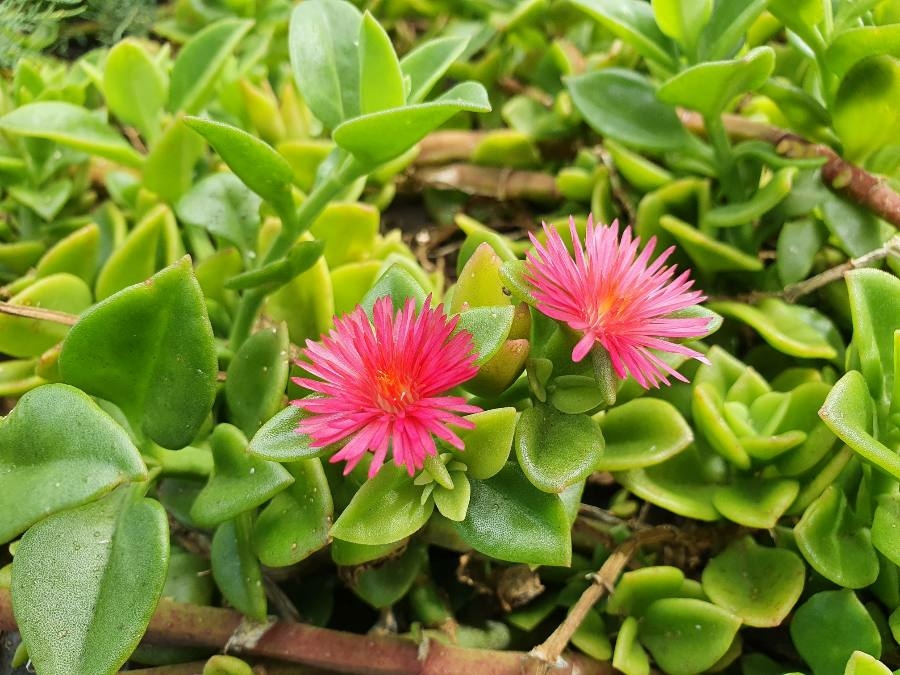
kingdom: Plantae
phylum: Tracheophyta
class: Magnoliopsida
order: Caryophyllales
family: Aizoaceae
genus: Mesembryanthemum
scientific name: Mesembryanthemum cordifolium
